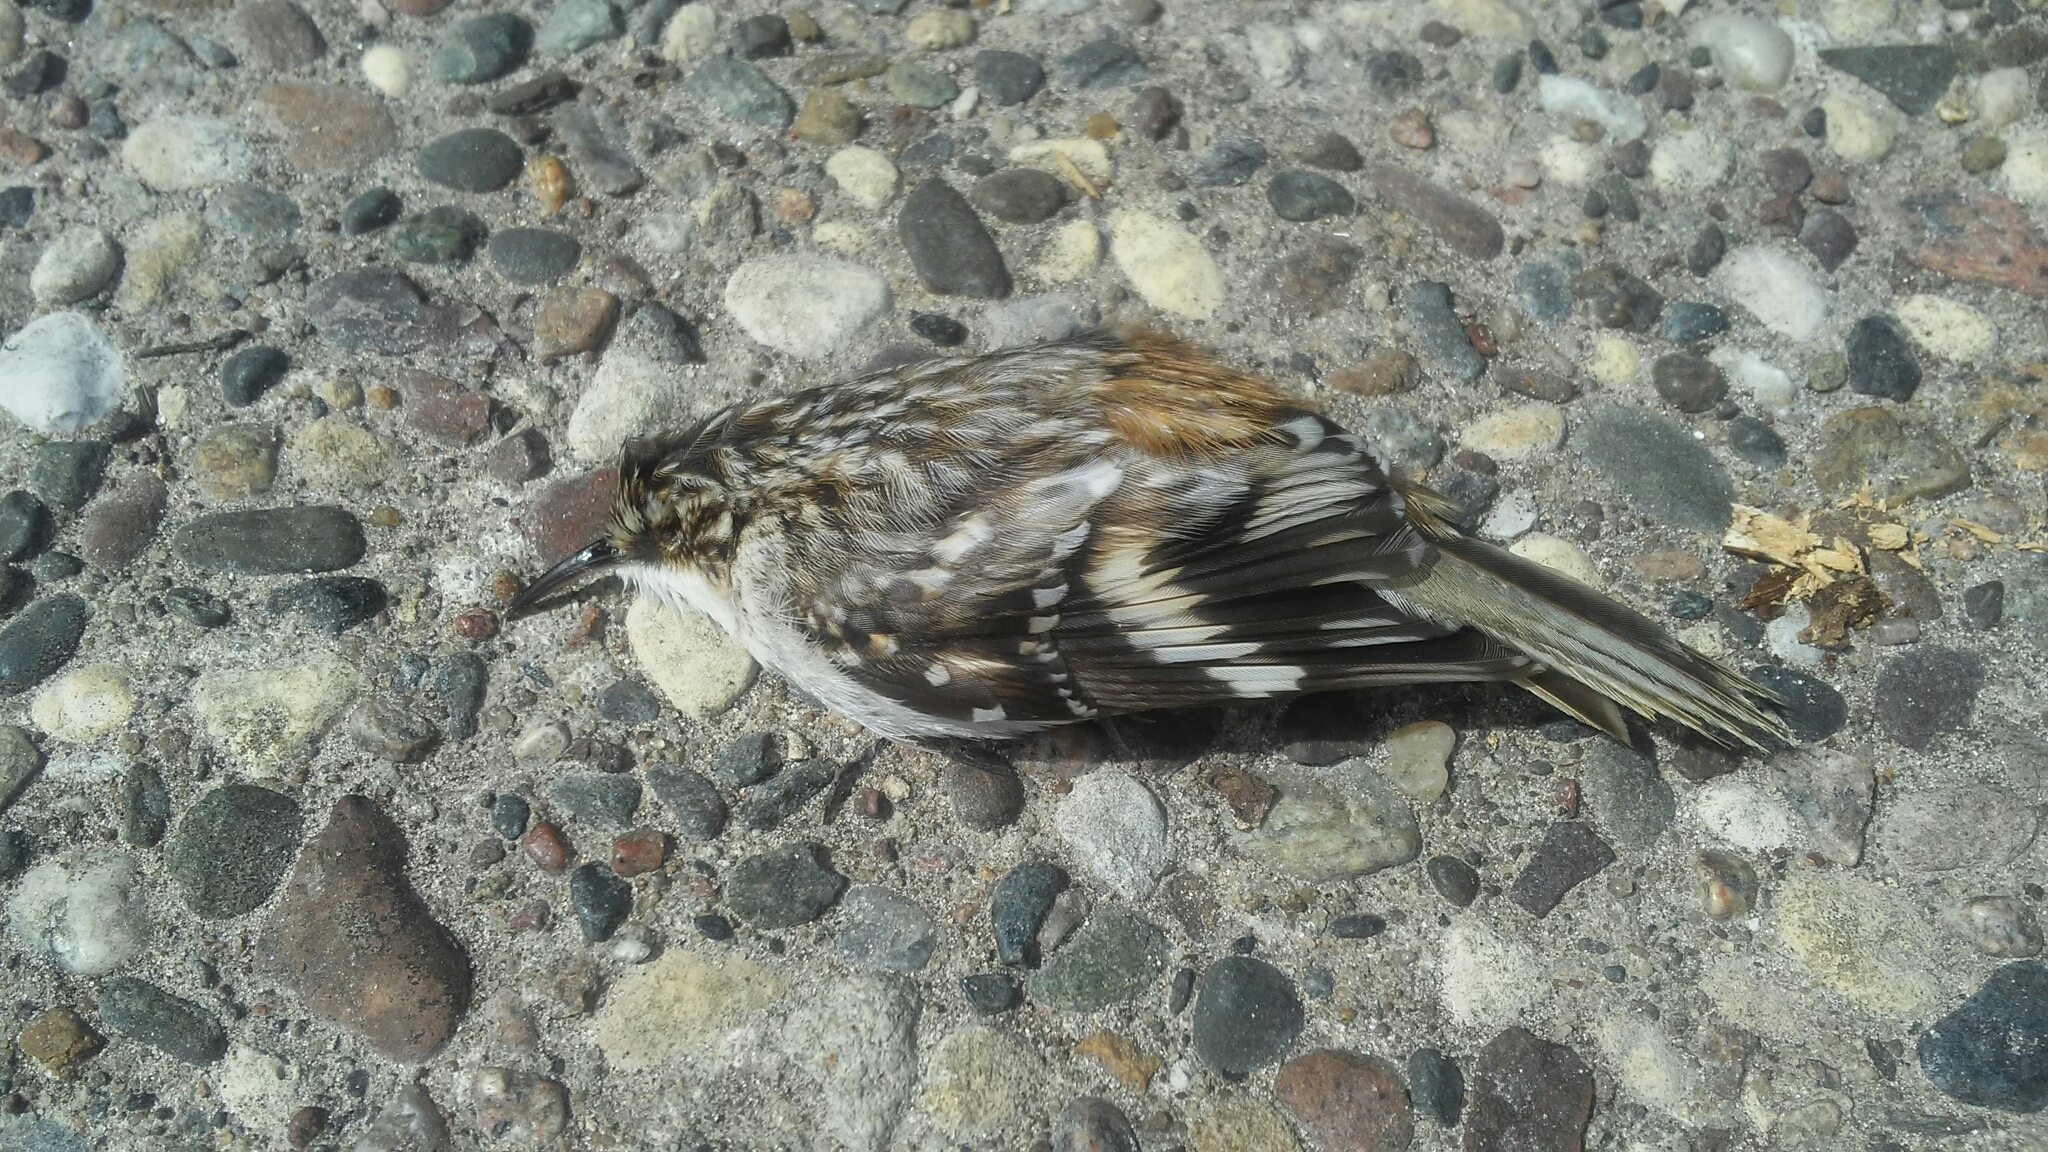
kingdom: Animalia
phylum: Chordata
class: Aves
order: Passeriformes
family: Certhiidae
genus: Certhia
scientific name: Certhia americana
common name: Brown creeper
